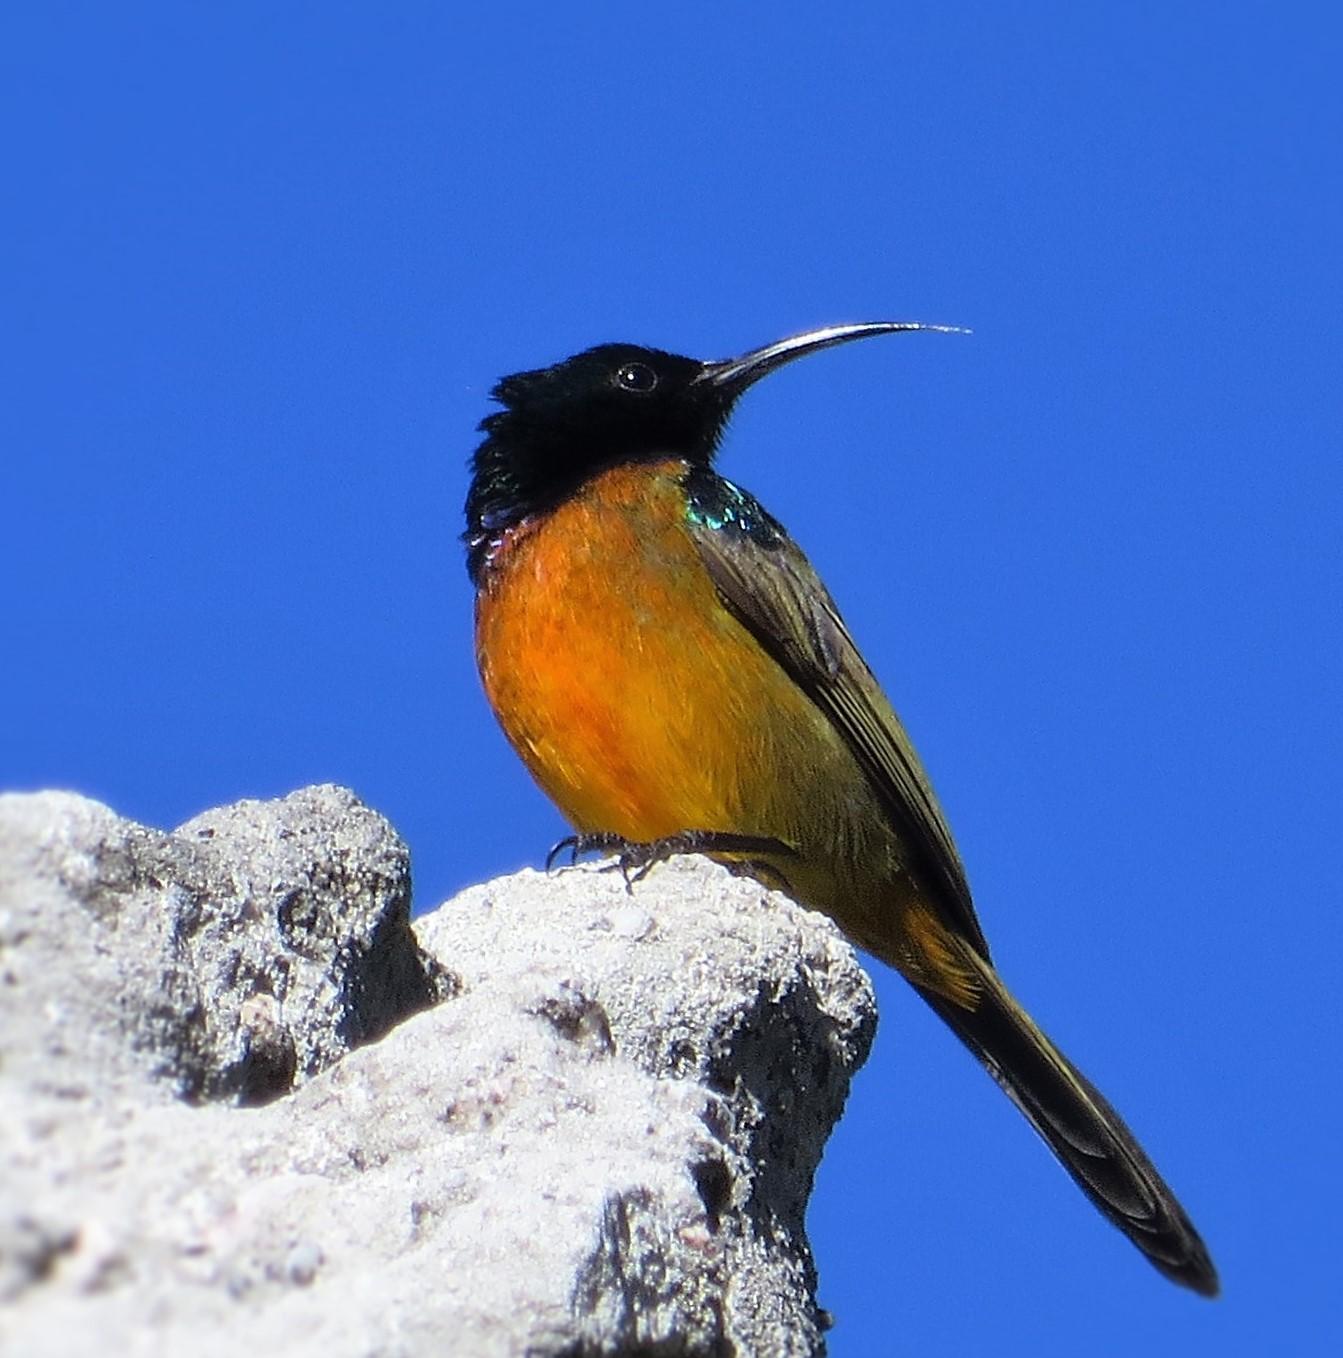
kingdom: Animalia
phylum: Chordata
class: Aves
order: Passeriformes
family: Nectariniidae
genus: Anthobaphes
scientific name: Anthobaphes violacea
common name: Orange-breasted sunbird
